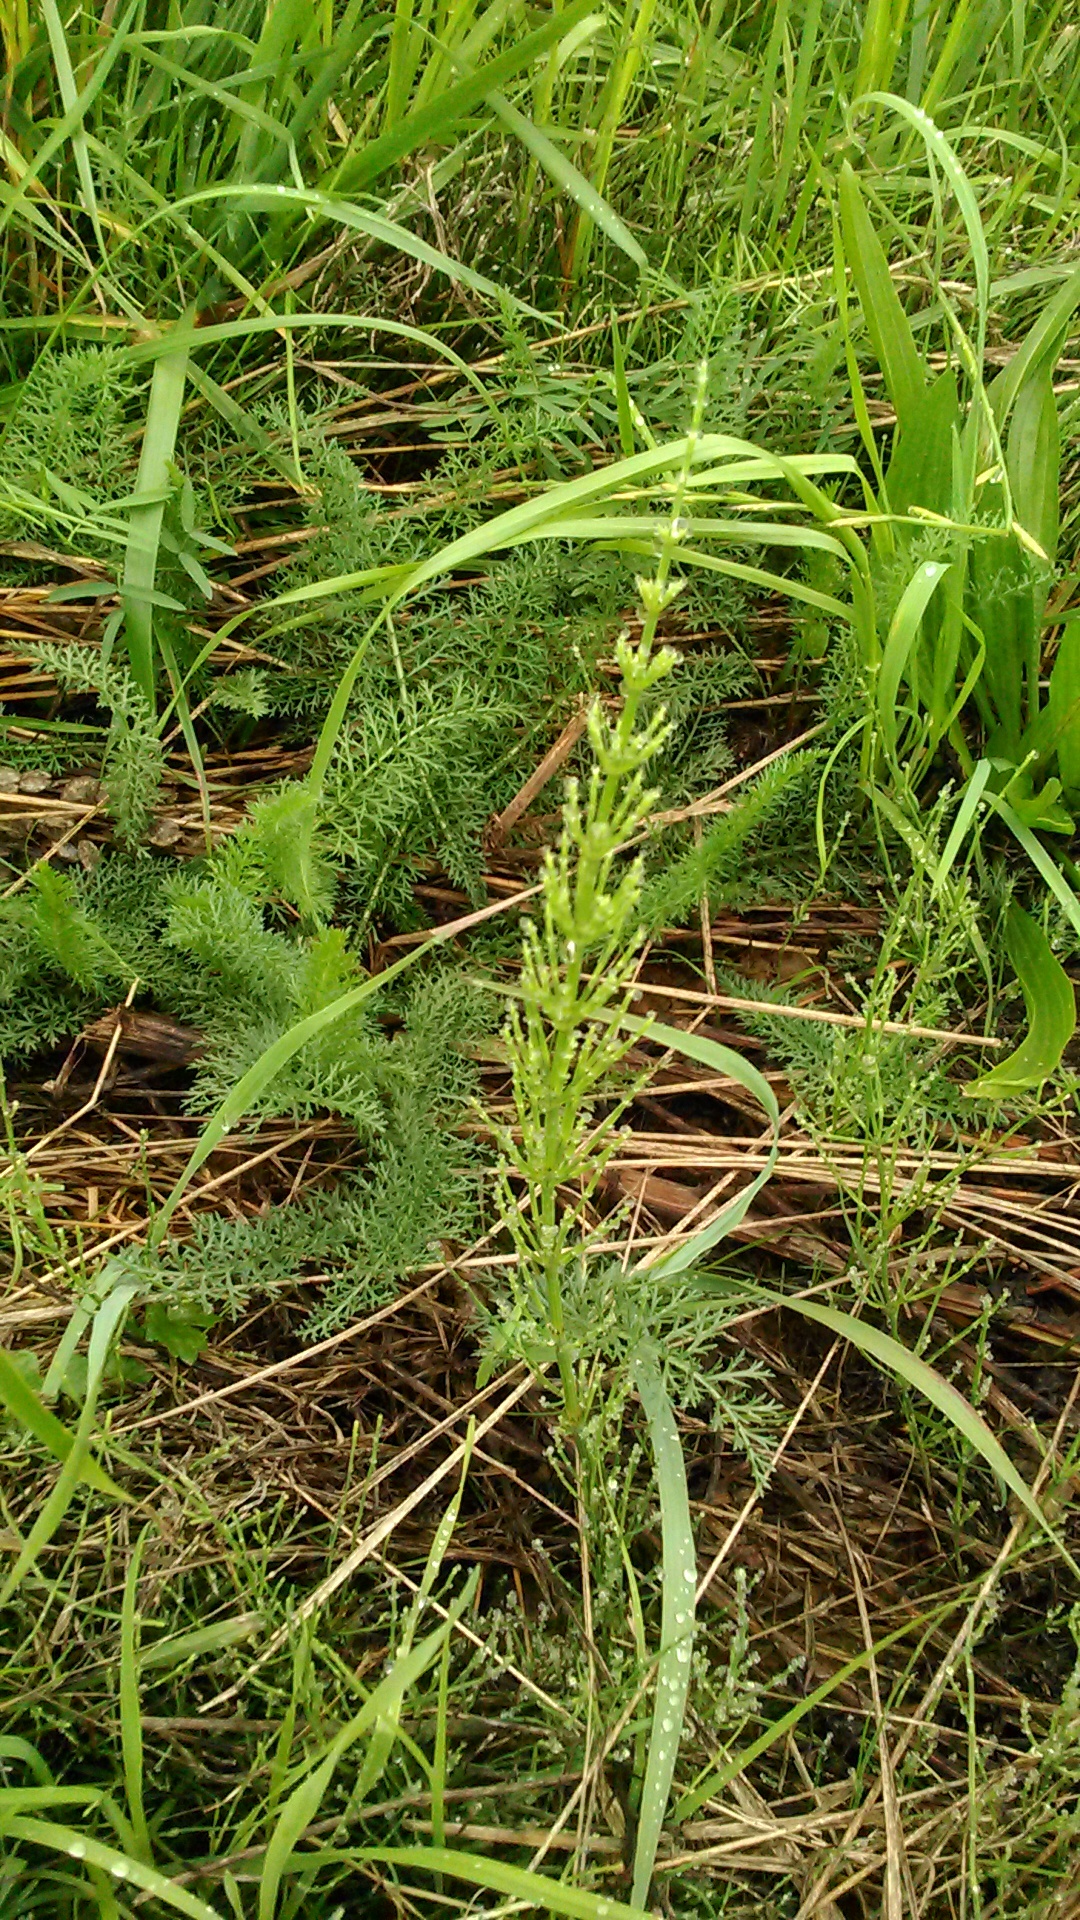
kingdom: Plantae
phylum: Tracheophyta
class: Polypodiopsida
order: Equisetales
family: Equisetaceae
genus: Equisetum
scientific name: Equisetum arvense
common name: Field horsetail
